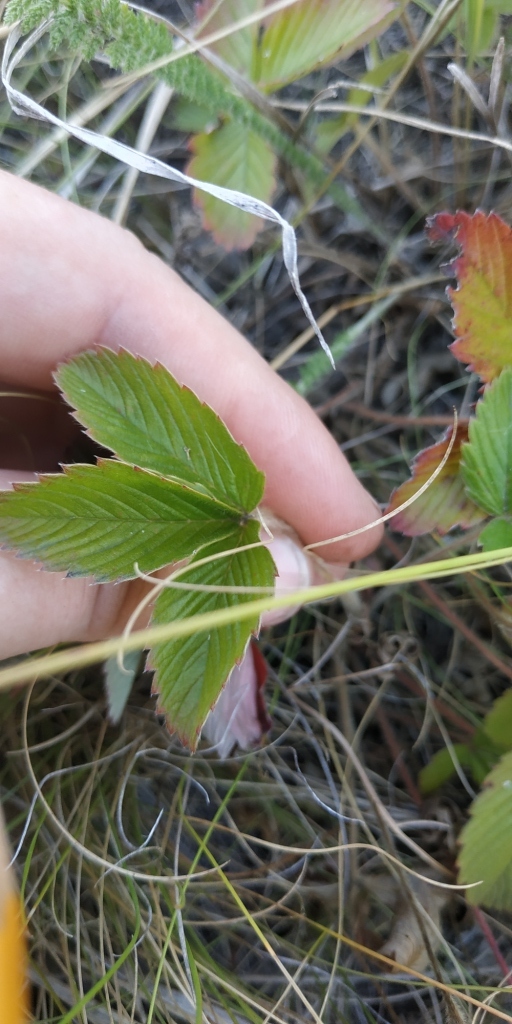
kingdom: Plantae
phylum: Tracheophyta
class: Magnoliopsida
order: Rosales
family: Rosaceae
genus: Fragaria
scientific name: Fragaria viridis
